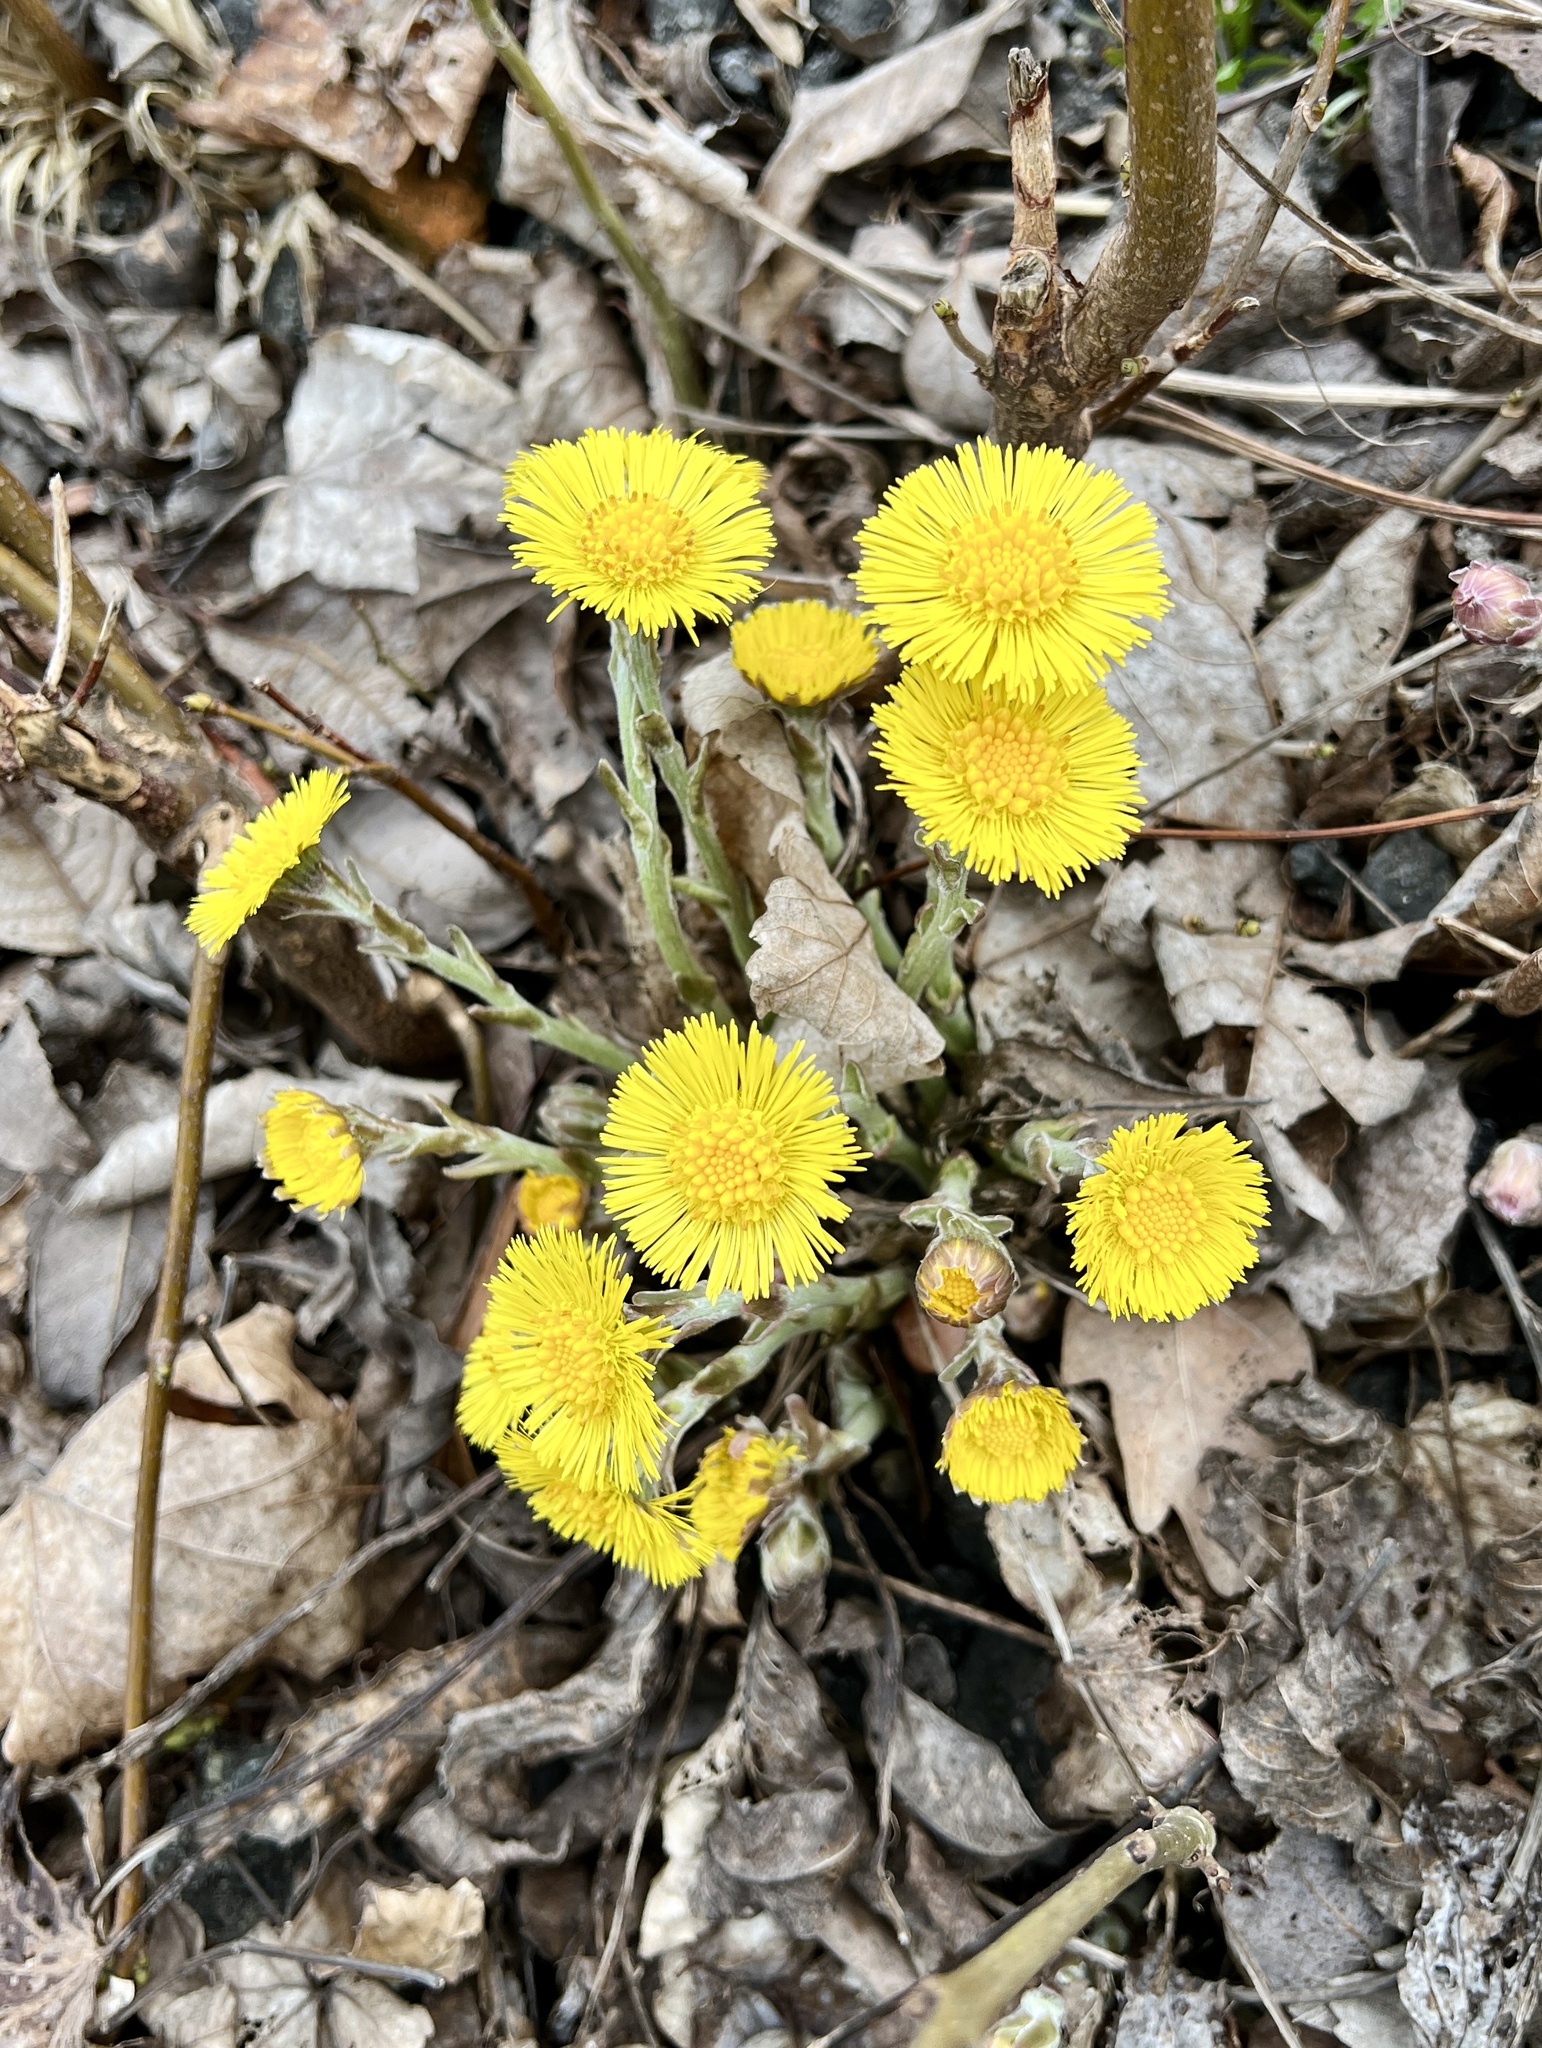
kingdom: Plantae
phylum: Tracheophyta
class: Magnoliopsida
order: Asterales
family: Asteraceae
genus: Tussilago
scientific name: Tussilago farfara
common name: Coltsfoot
